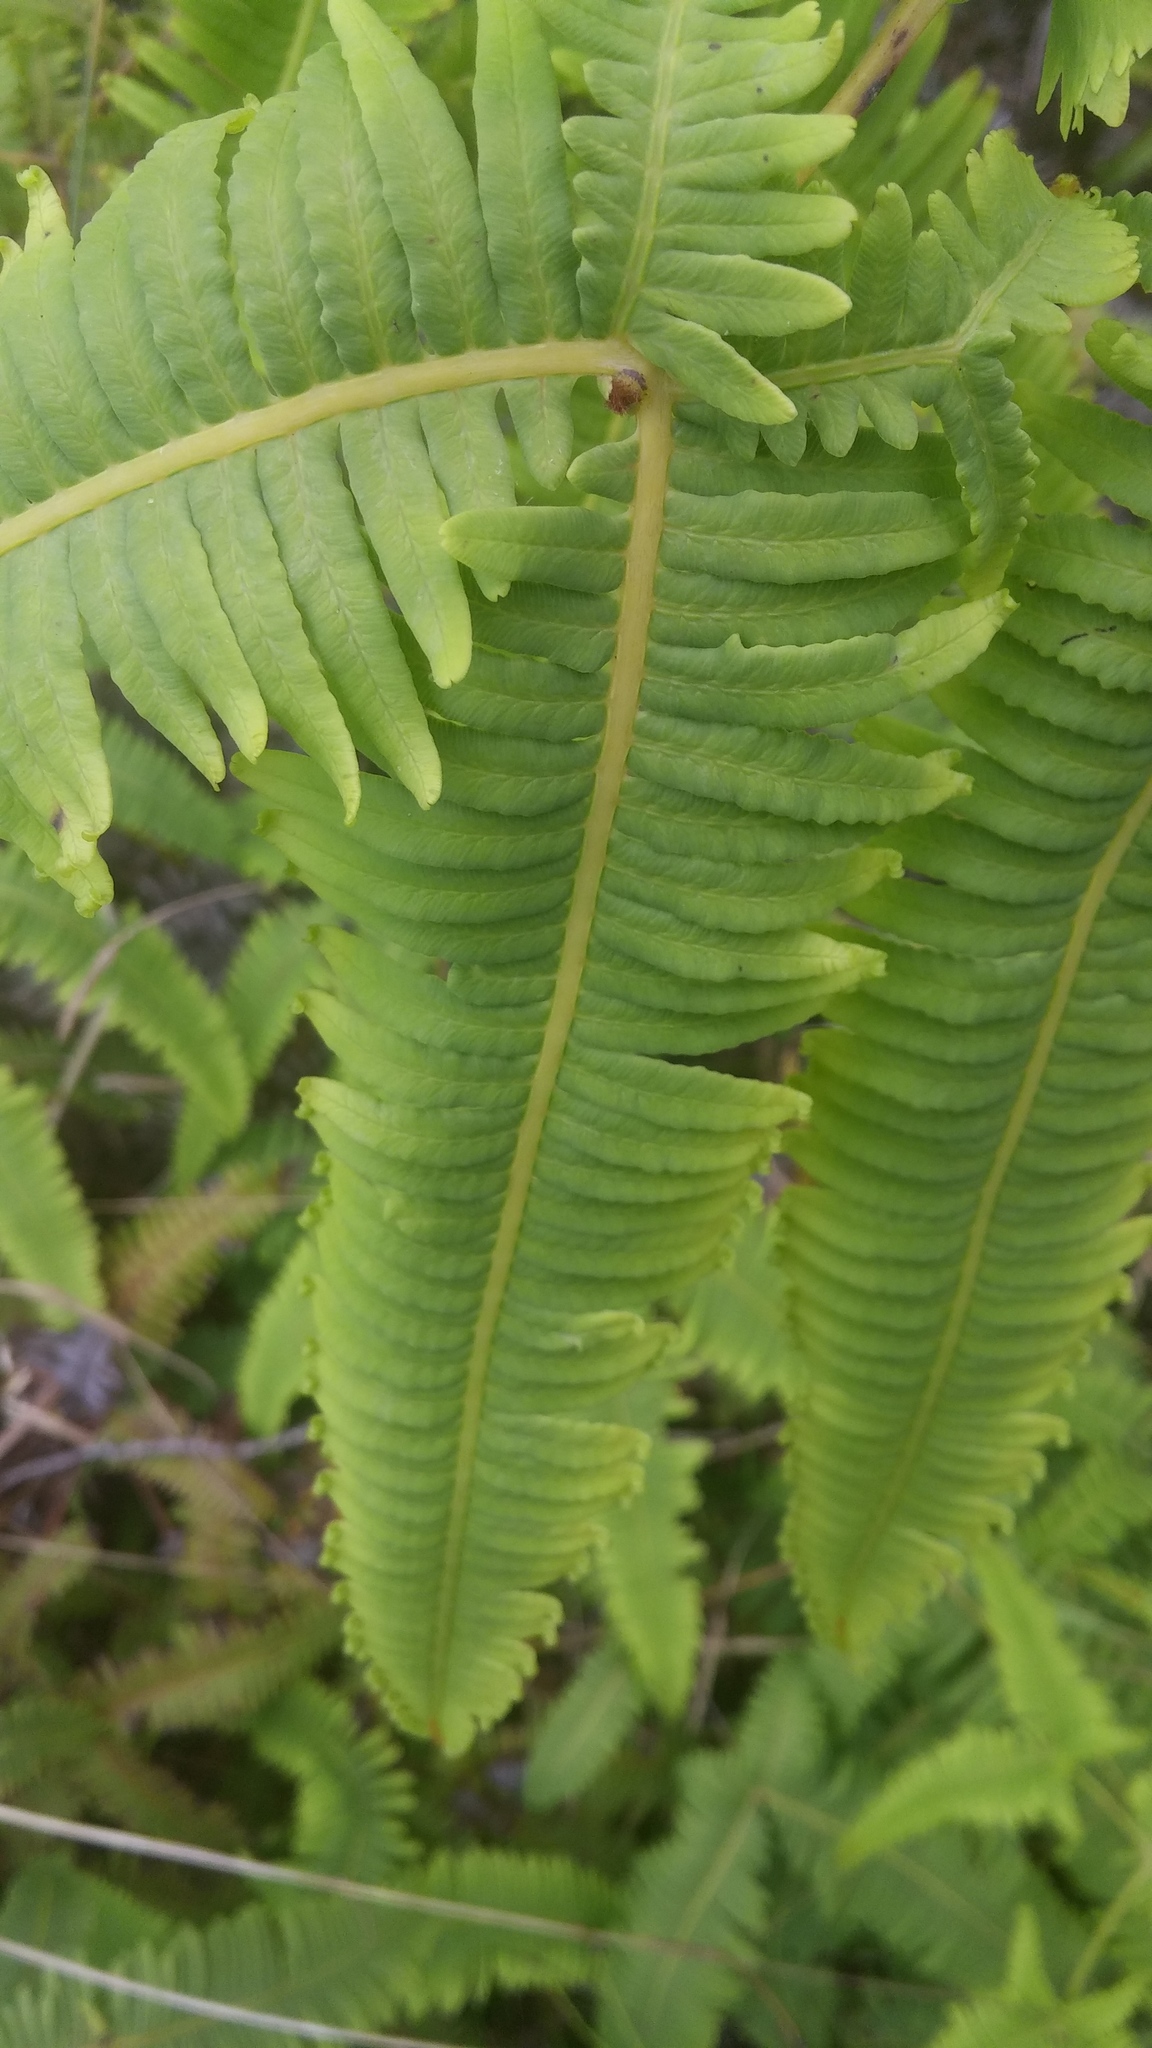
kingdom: Plantae
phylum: Tracheophyta
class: Polypodiopsida
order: Gleicheniales
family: Gleicheniaceae
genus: Dicranopteris
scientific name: Dicranopteris linearis
